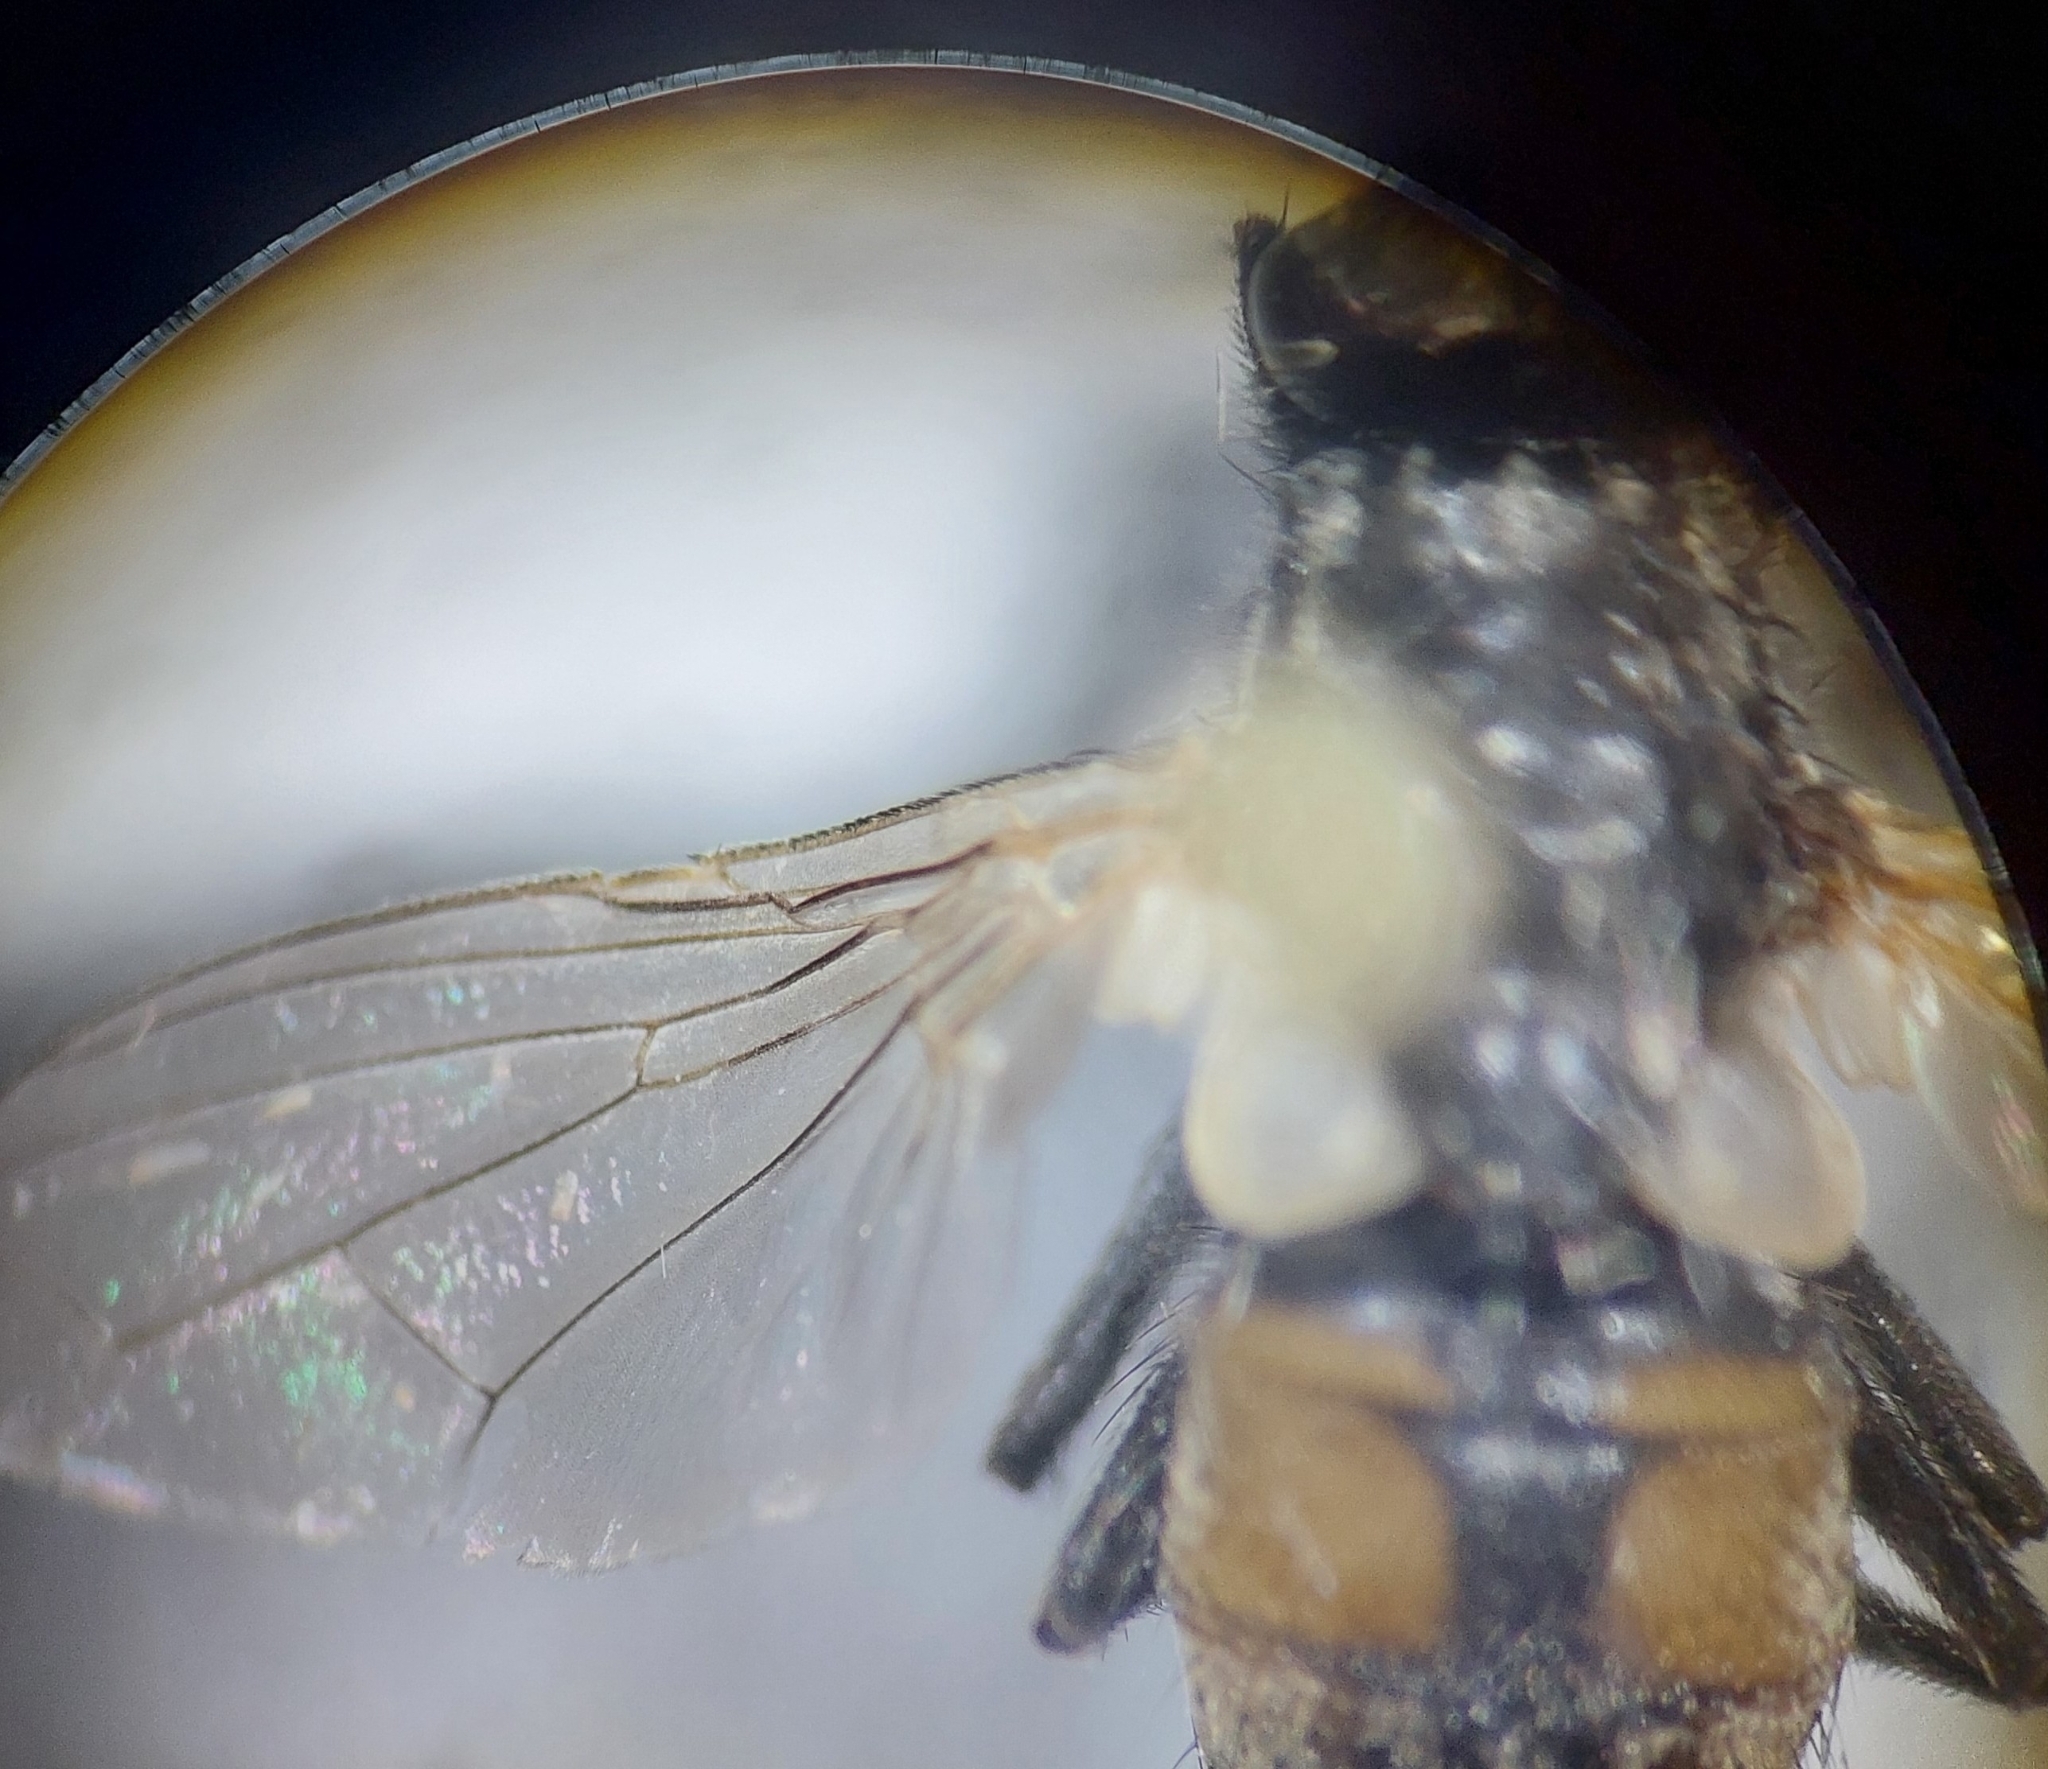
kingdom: Animalia
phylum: Arthropoda
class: Insecta
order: Diptera
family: Muscidae
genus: Musca
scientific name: Musca domestica
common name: House fly
